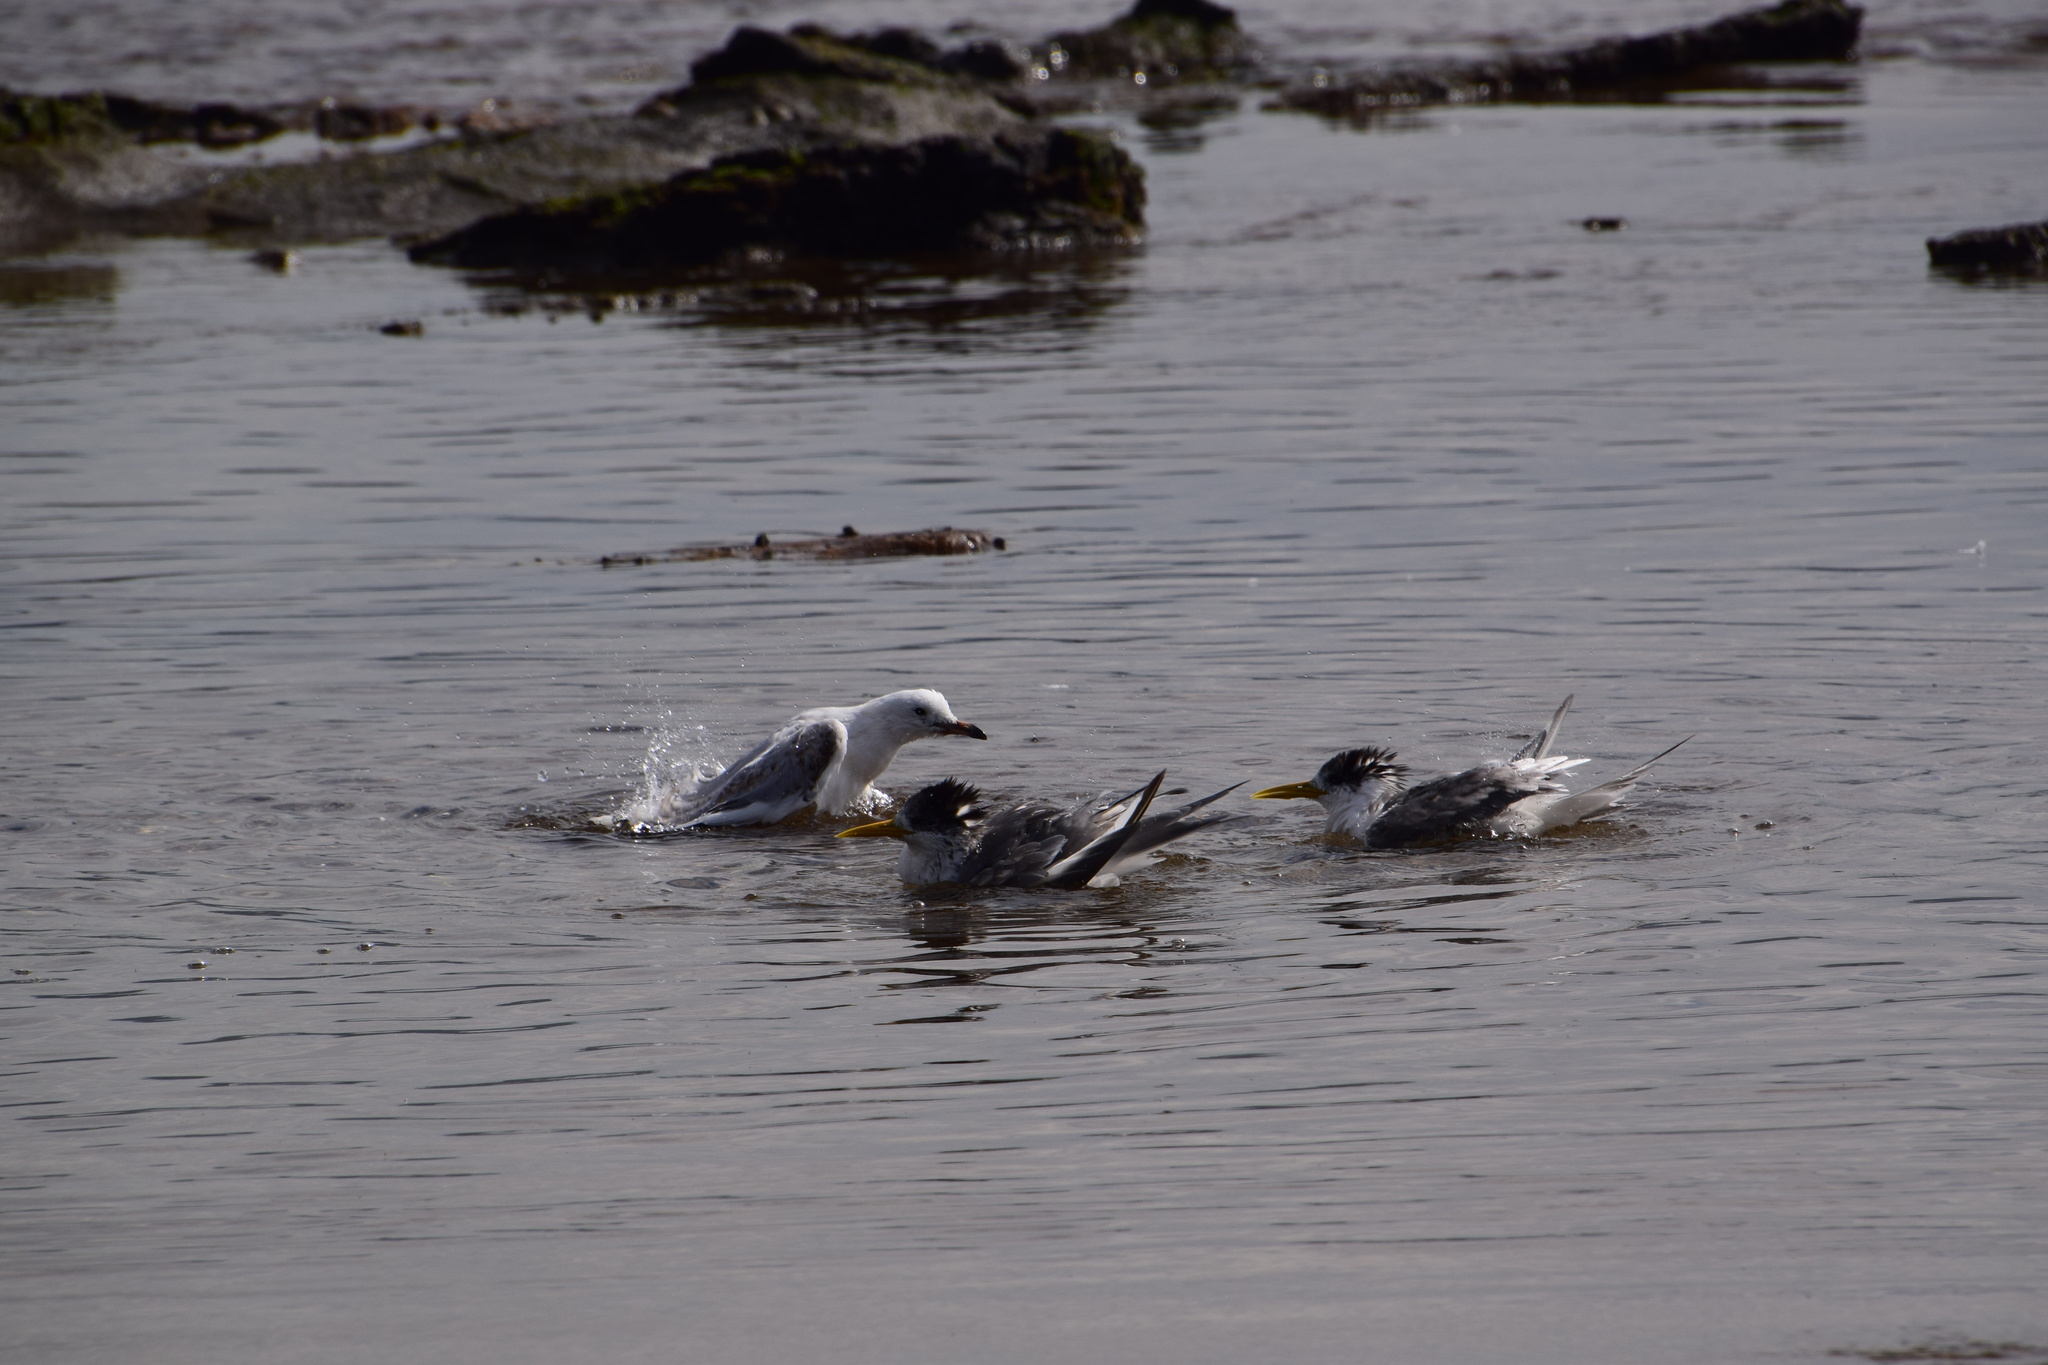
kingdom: Animalia
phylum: Chordata
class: Aves
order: Charadriiformes
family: Laridae
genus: Chroicocephalus
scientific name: Chroicocephalus novaehollandiae
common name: Silver gull
